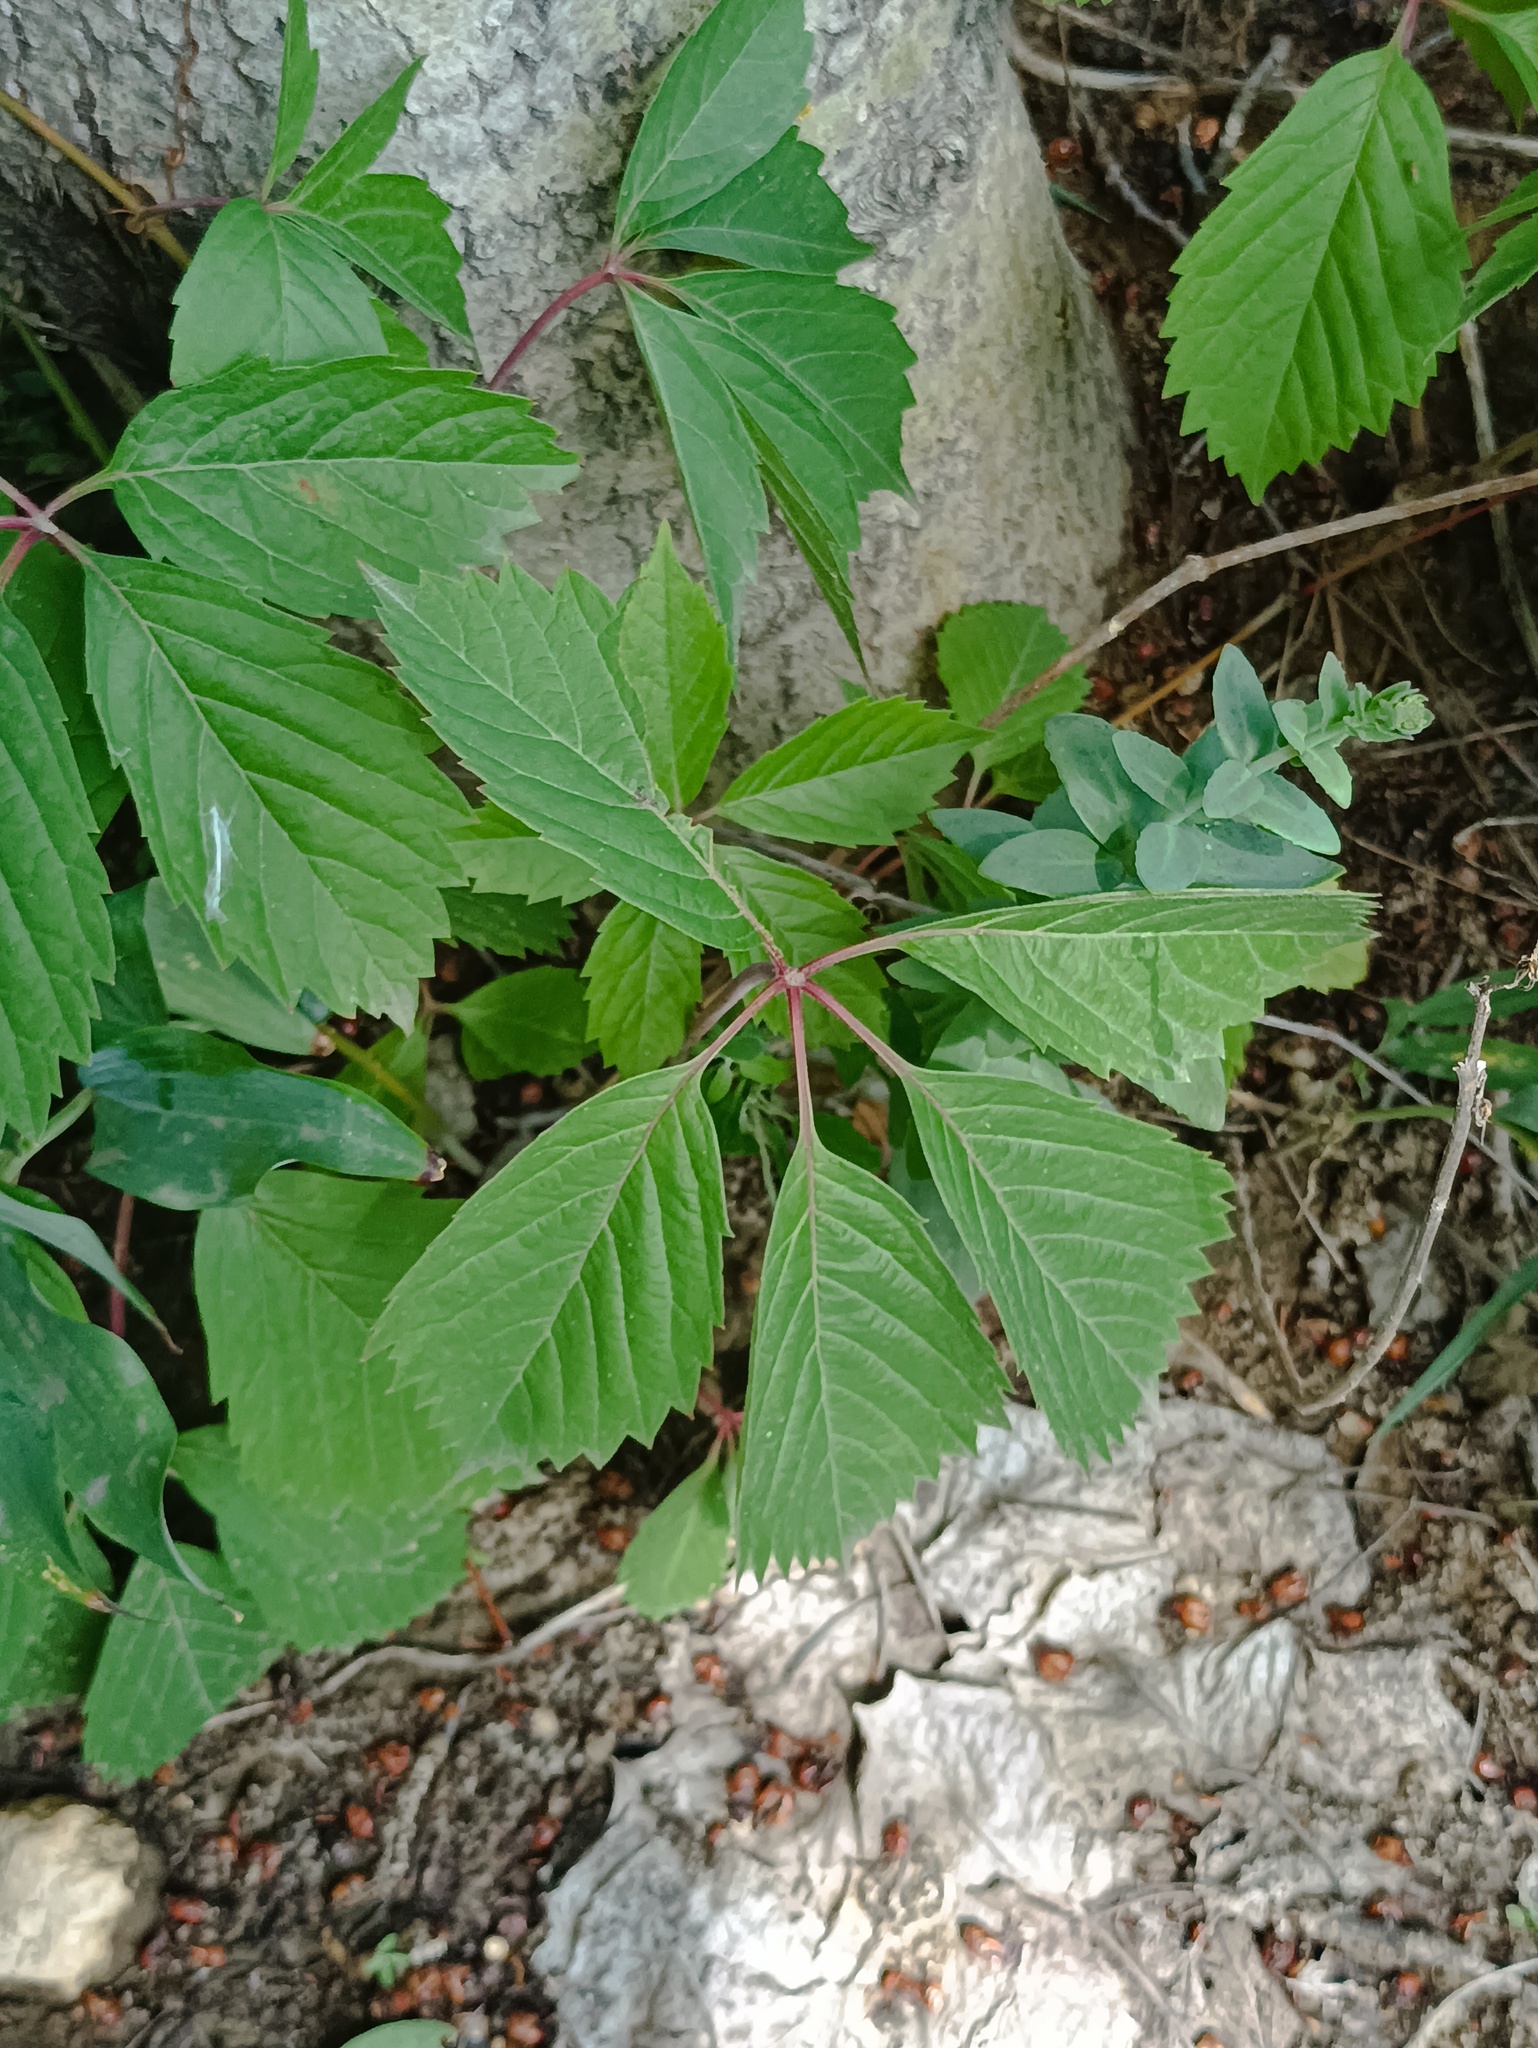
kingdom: Plantae
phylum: Tracheophyta
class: Magnoliopsida
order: Vitales
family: Vitaceae
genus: Parthenocissus
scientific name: Parthenocissus inserta
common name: False virginia-creeper
